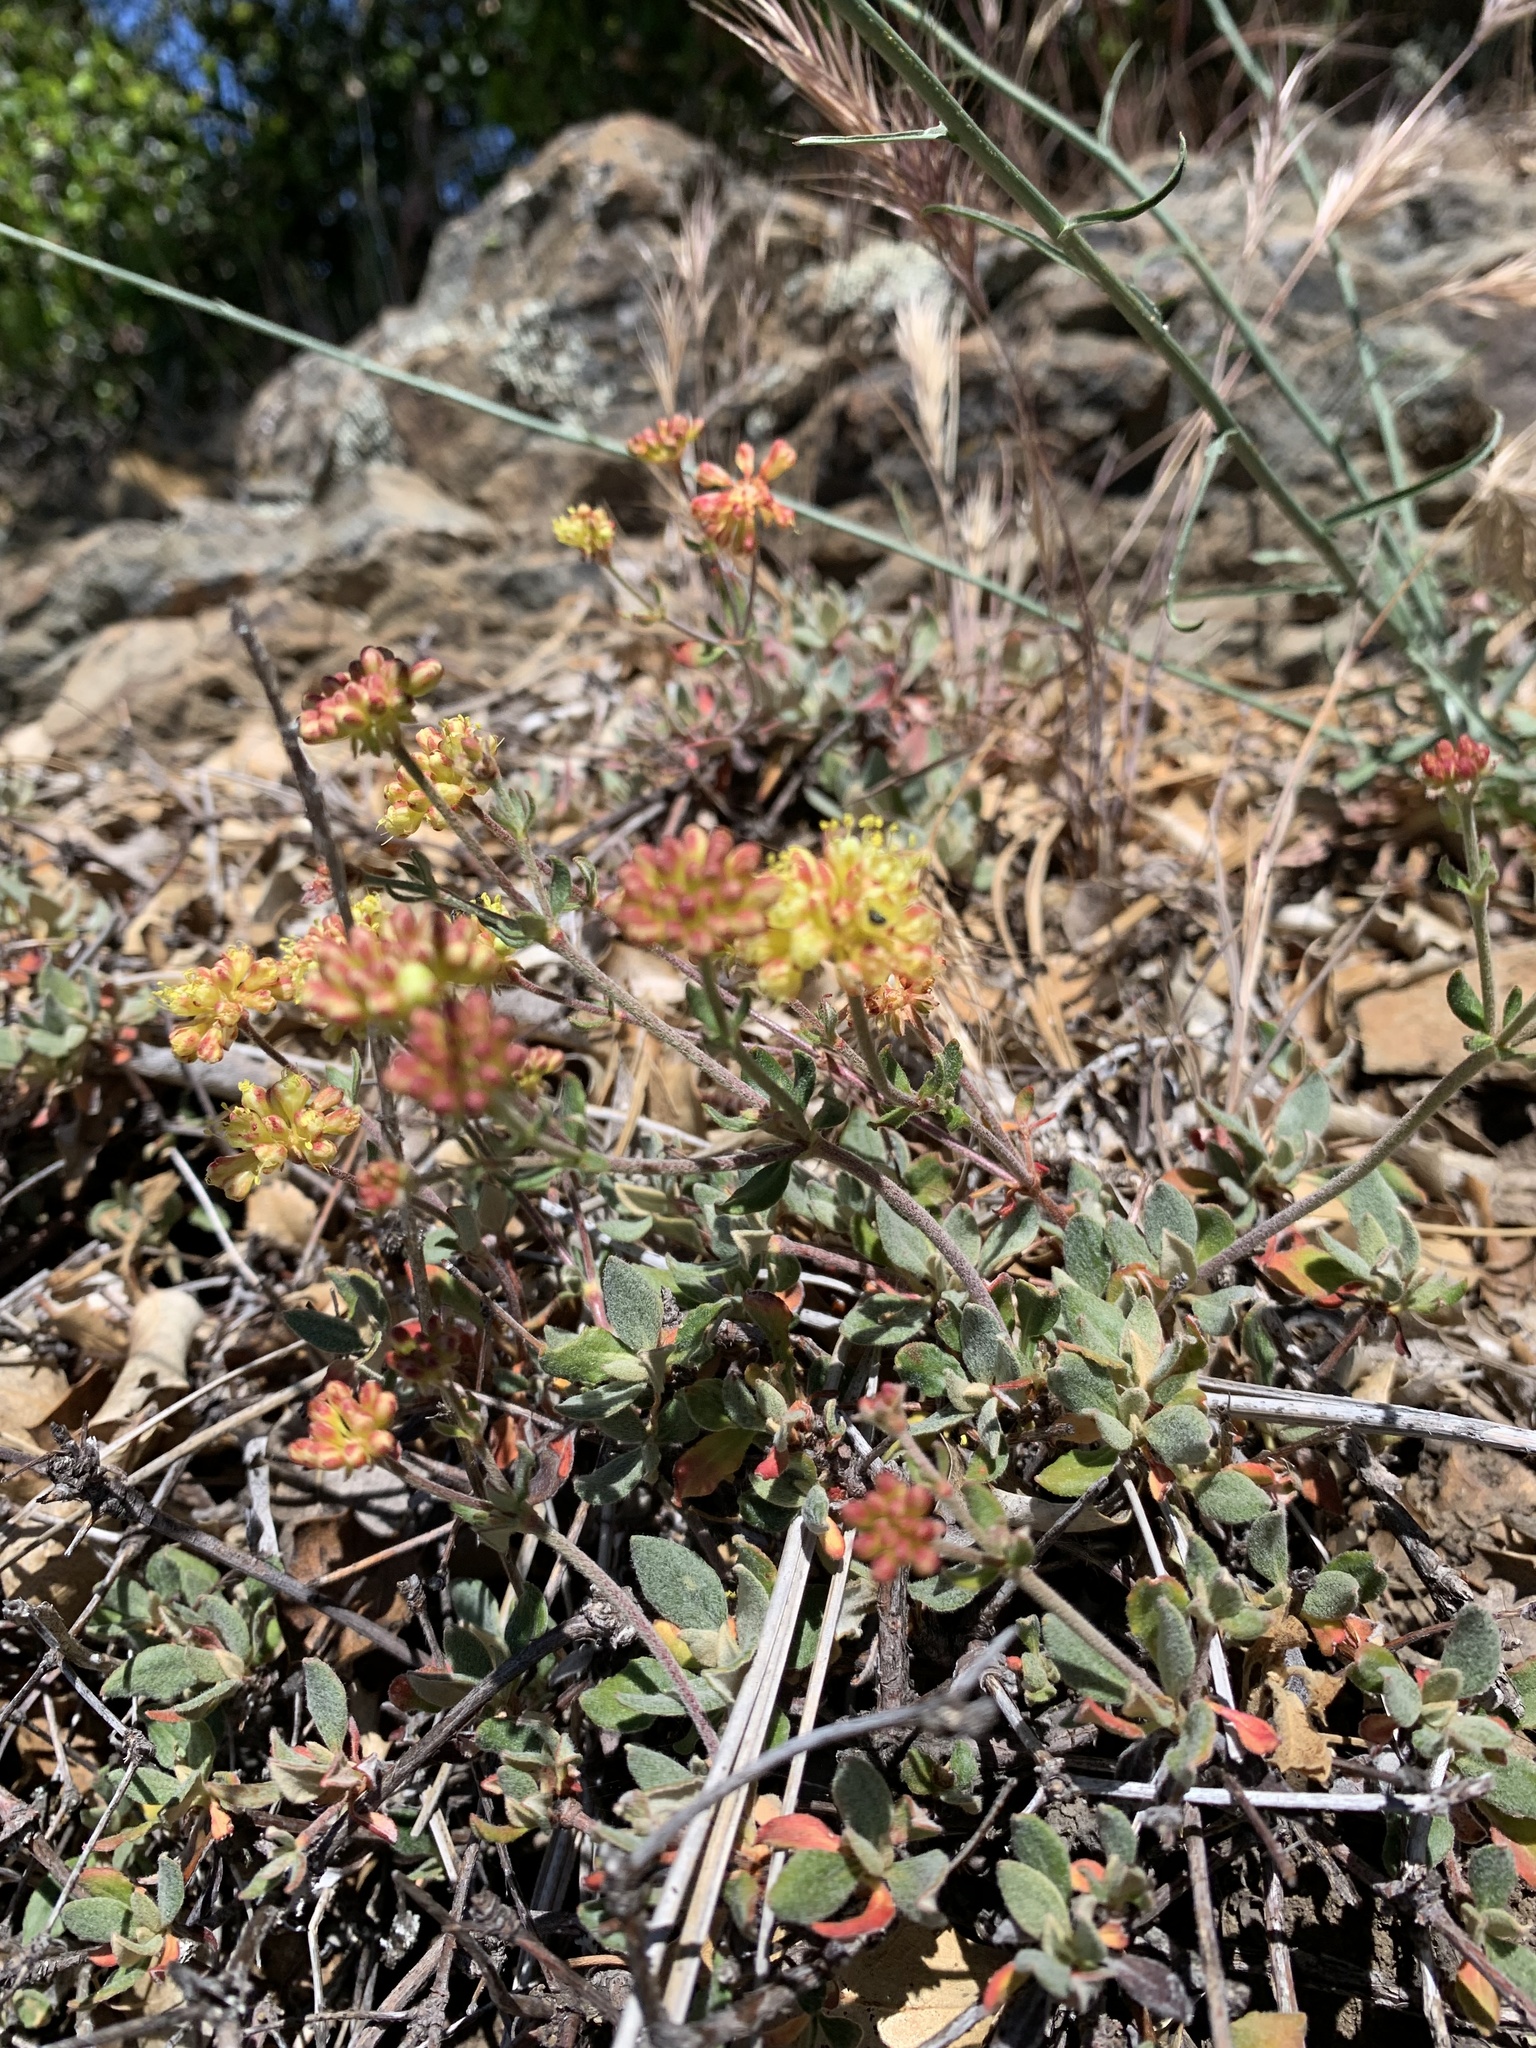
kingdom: Plantae
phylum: Tracheophyta
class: Magnoliopsida
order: Caryophyllales
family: Polygonaceae
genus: Eriogonum
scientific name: Eriogonum umbellatum
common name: Sulfur-buckwheat
